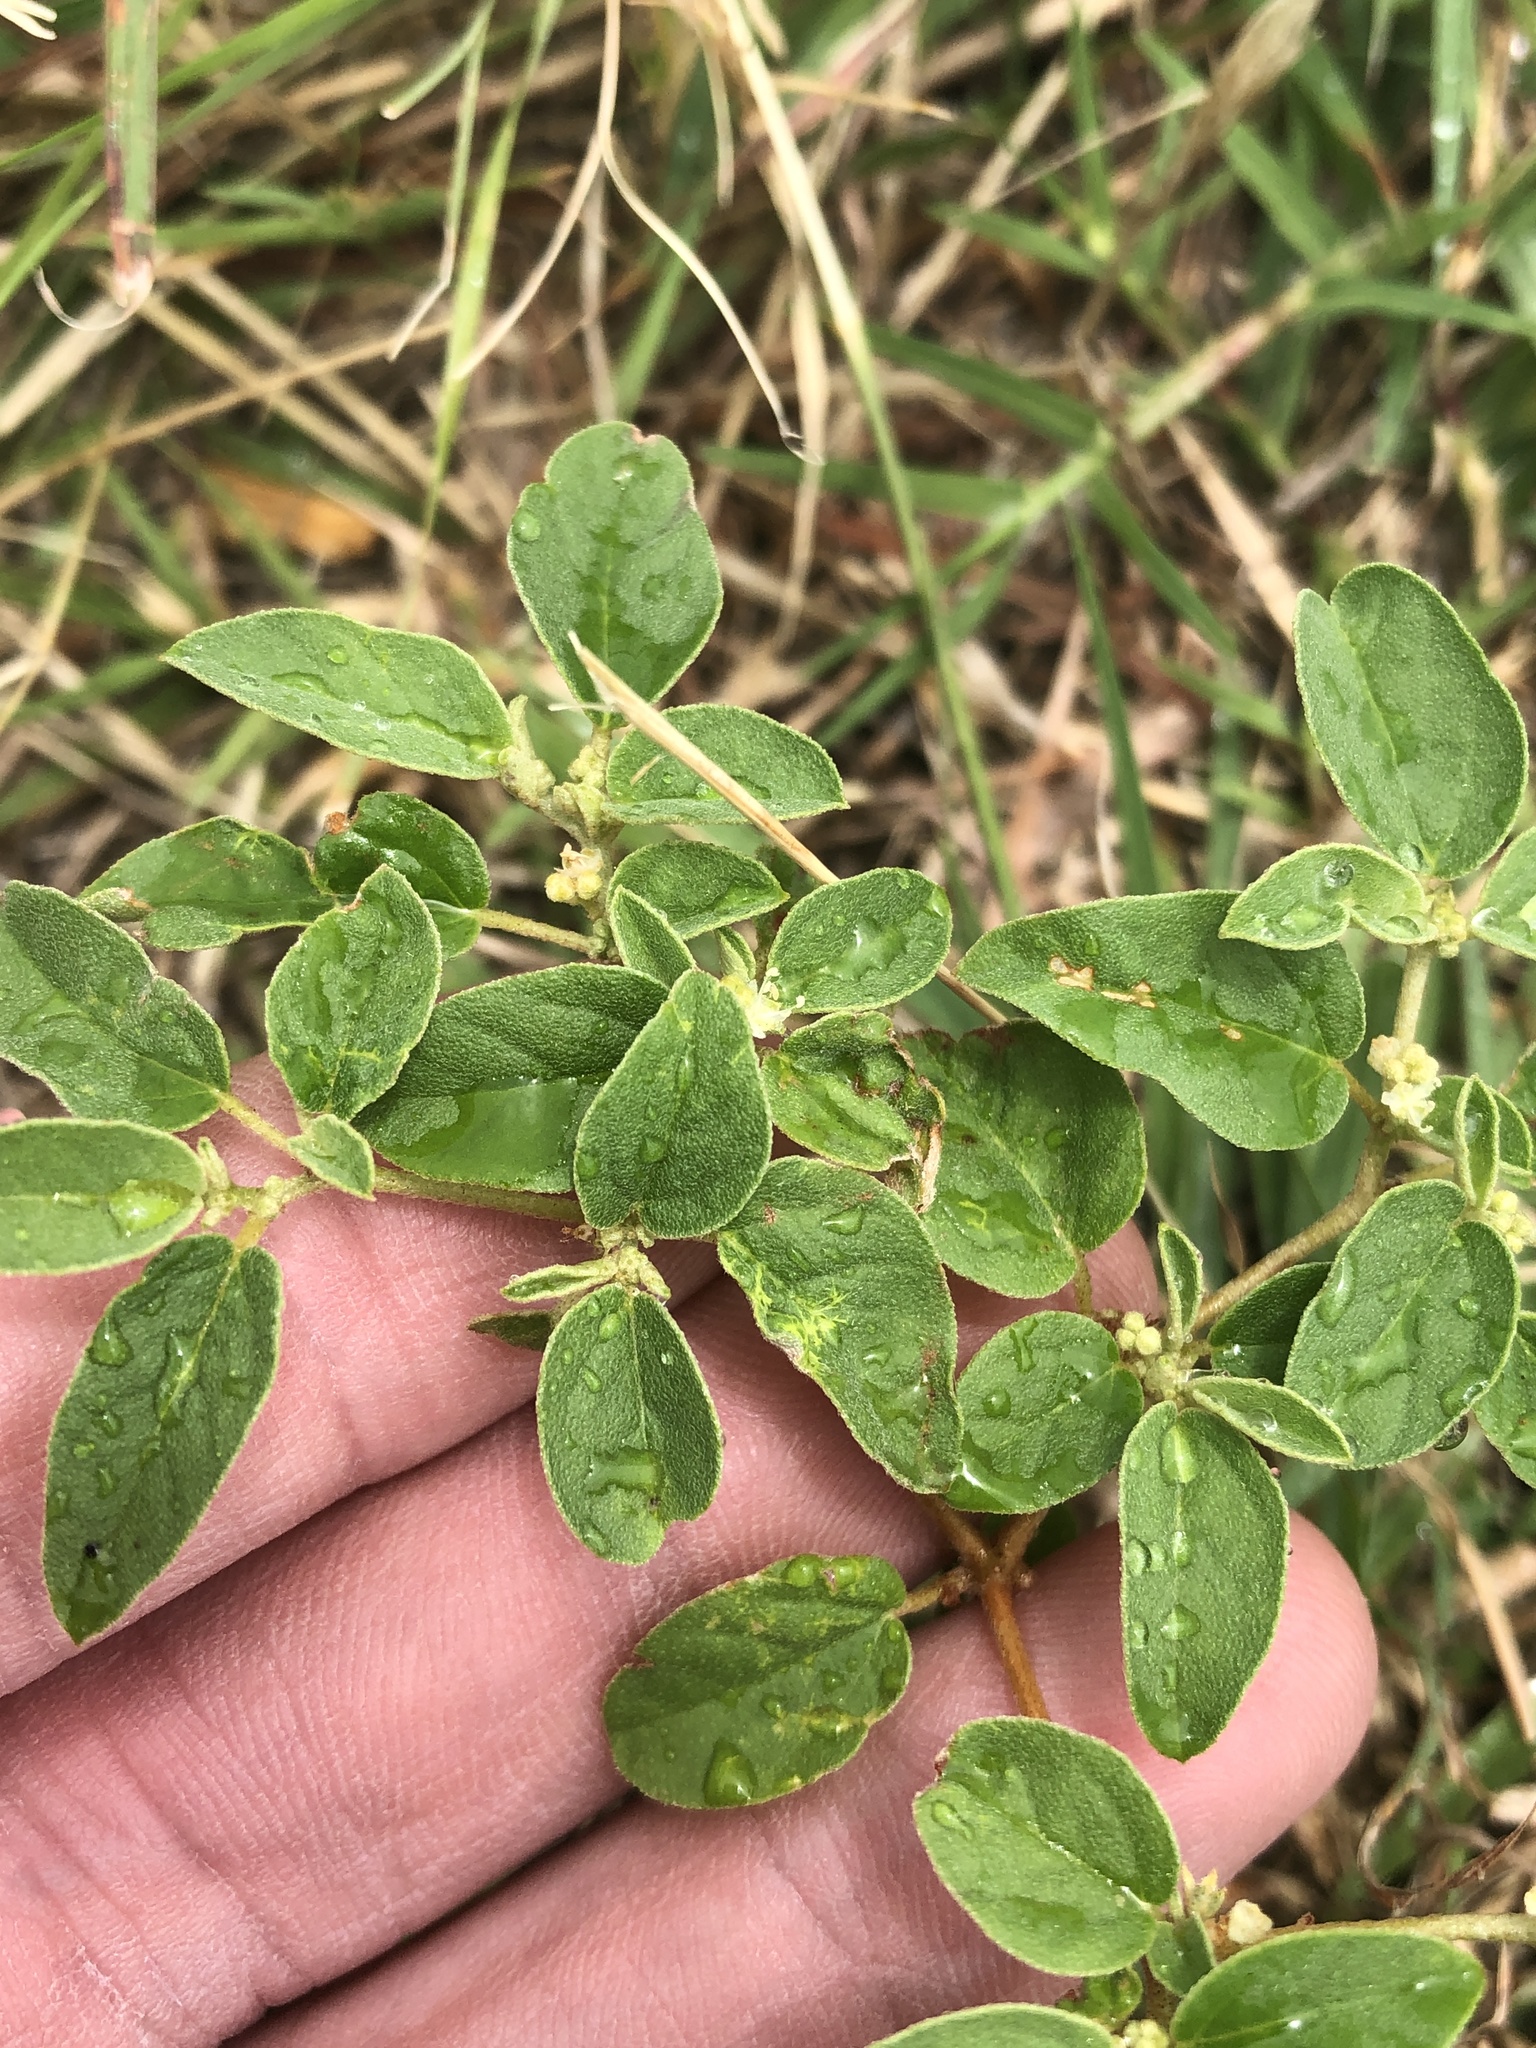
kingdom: Plantae
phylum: Tracheophyta
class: Magnoliopsida
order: Malpighiales
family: Euphorbiaceae
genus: Croton
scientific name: Croton monanthogynus
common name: One-seed croton
